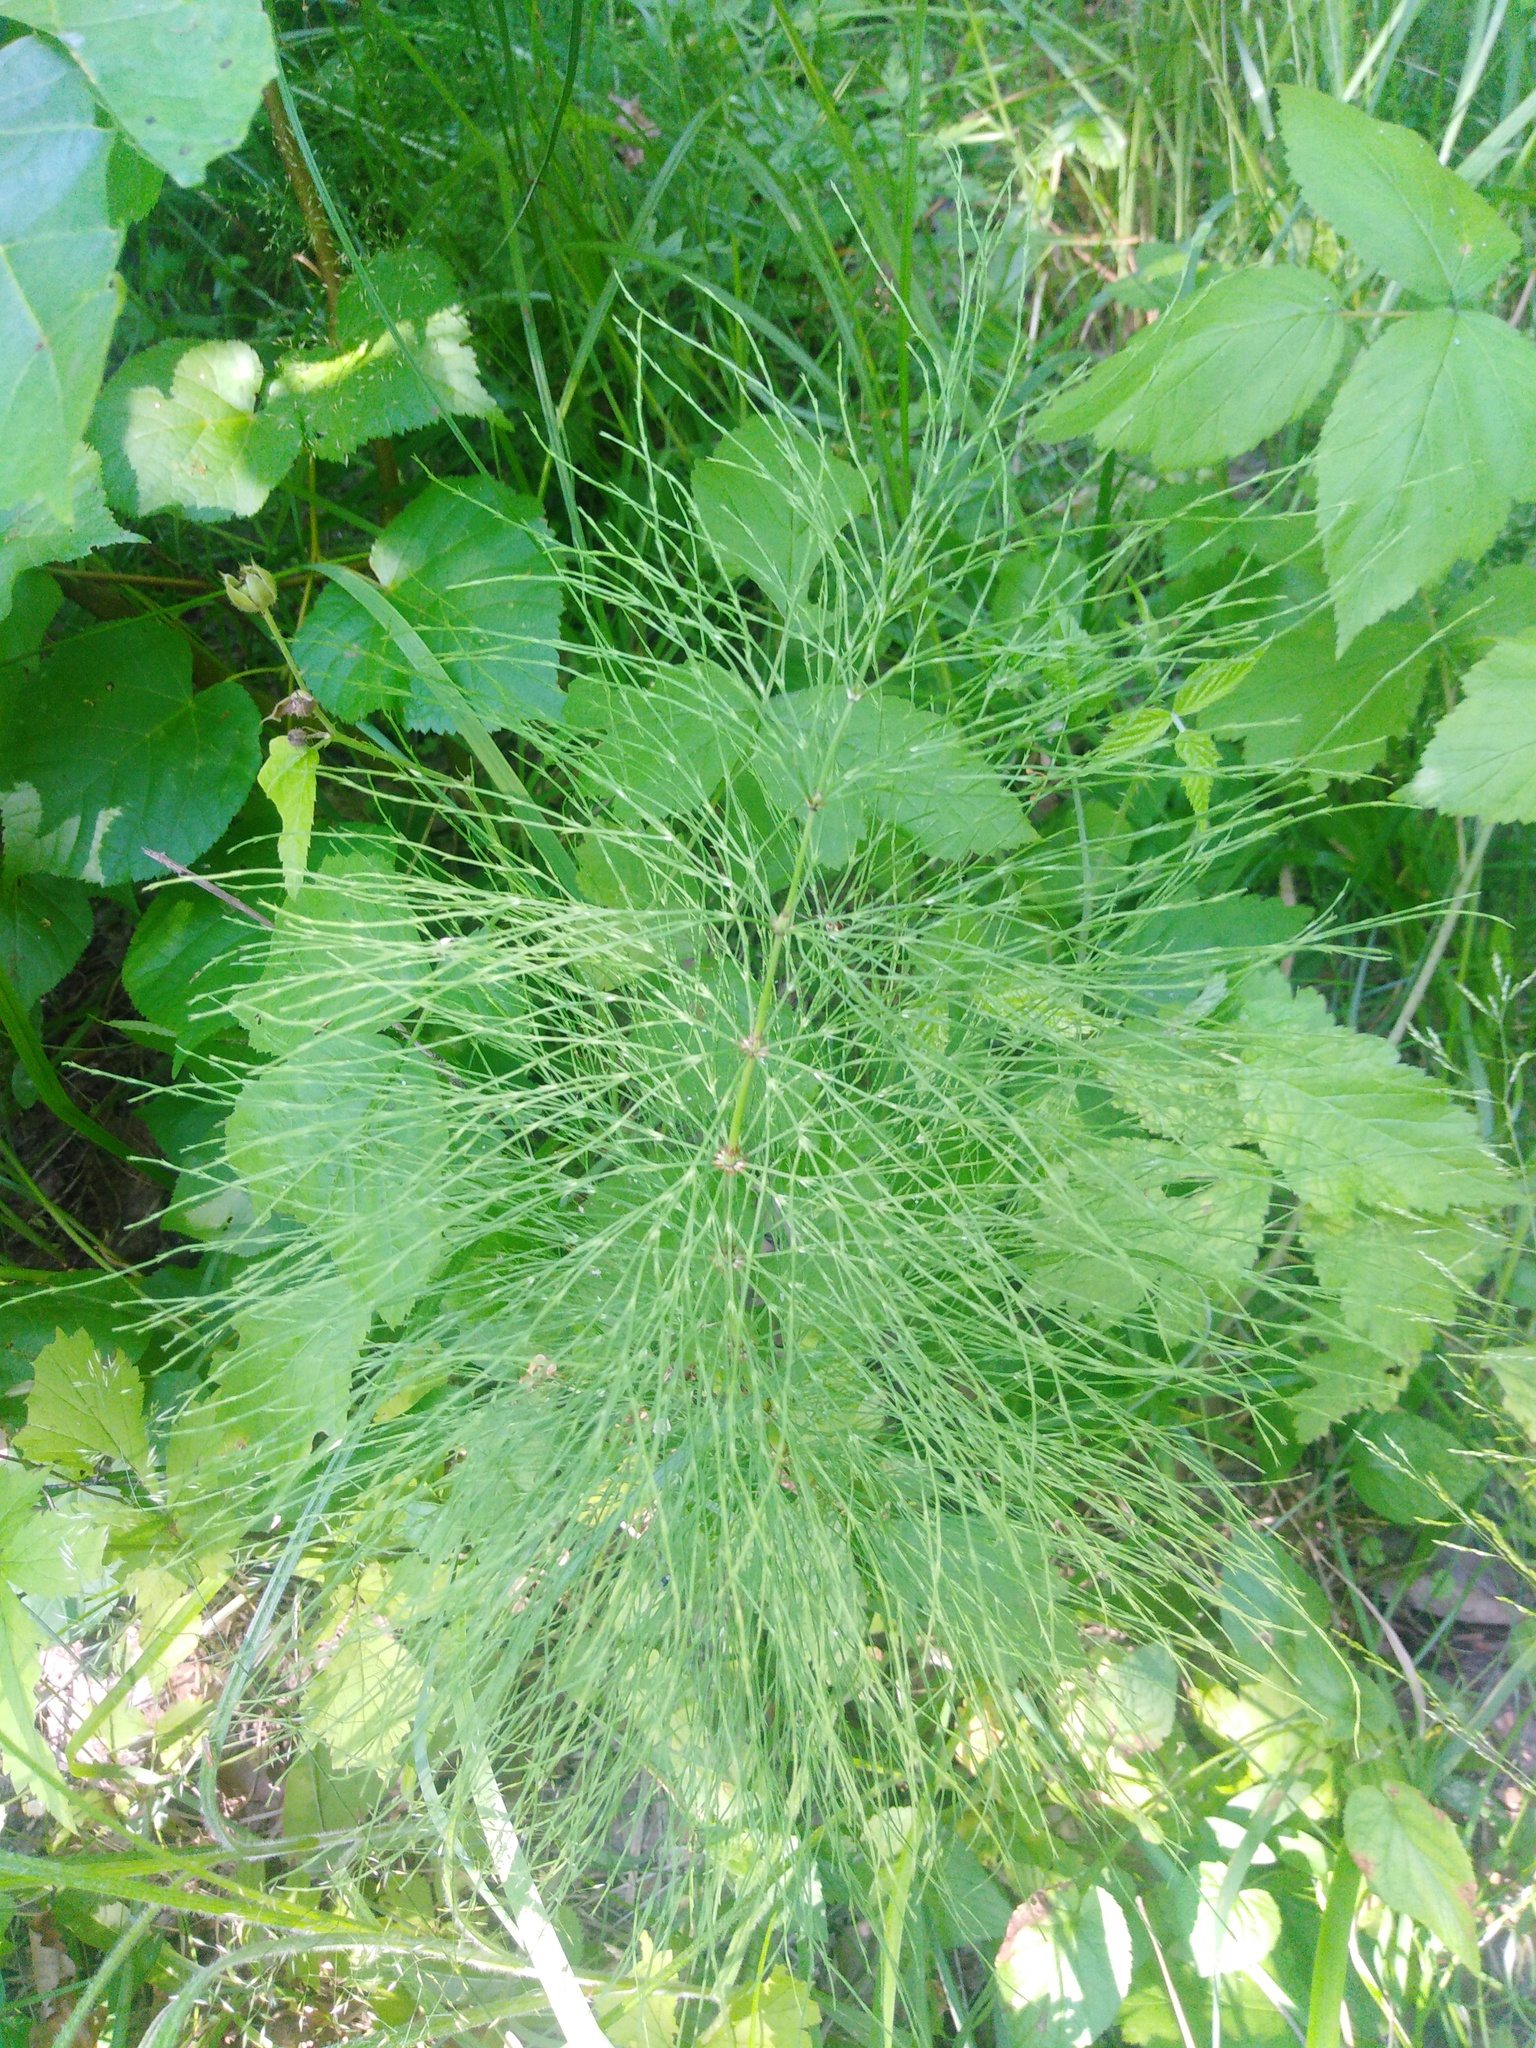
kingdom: Plantae
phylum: Tracheophyta
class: Polypodiopsida
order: Equisetales
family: Equisetaceae
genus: Equisetum
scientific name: Equisetum sylvaticum
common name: Wood horsetail
